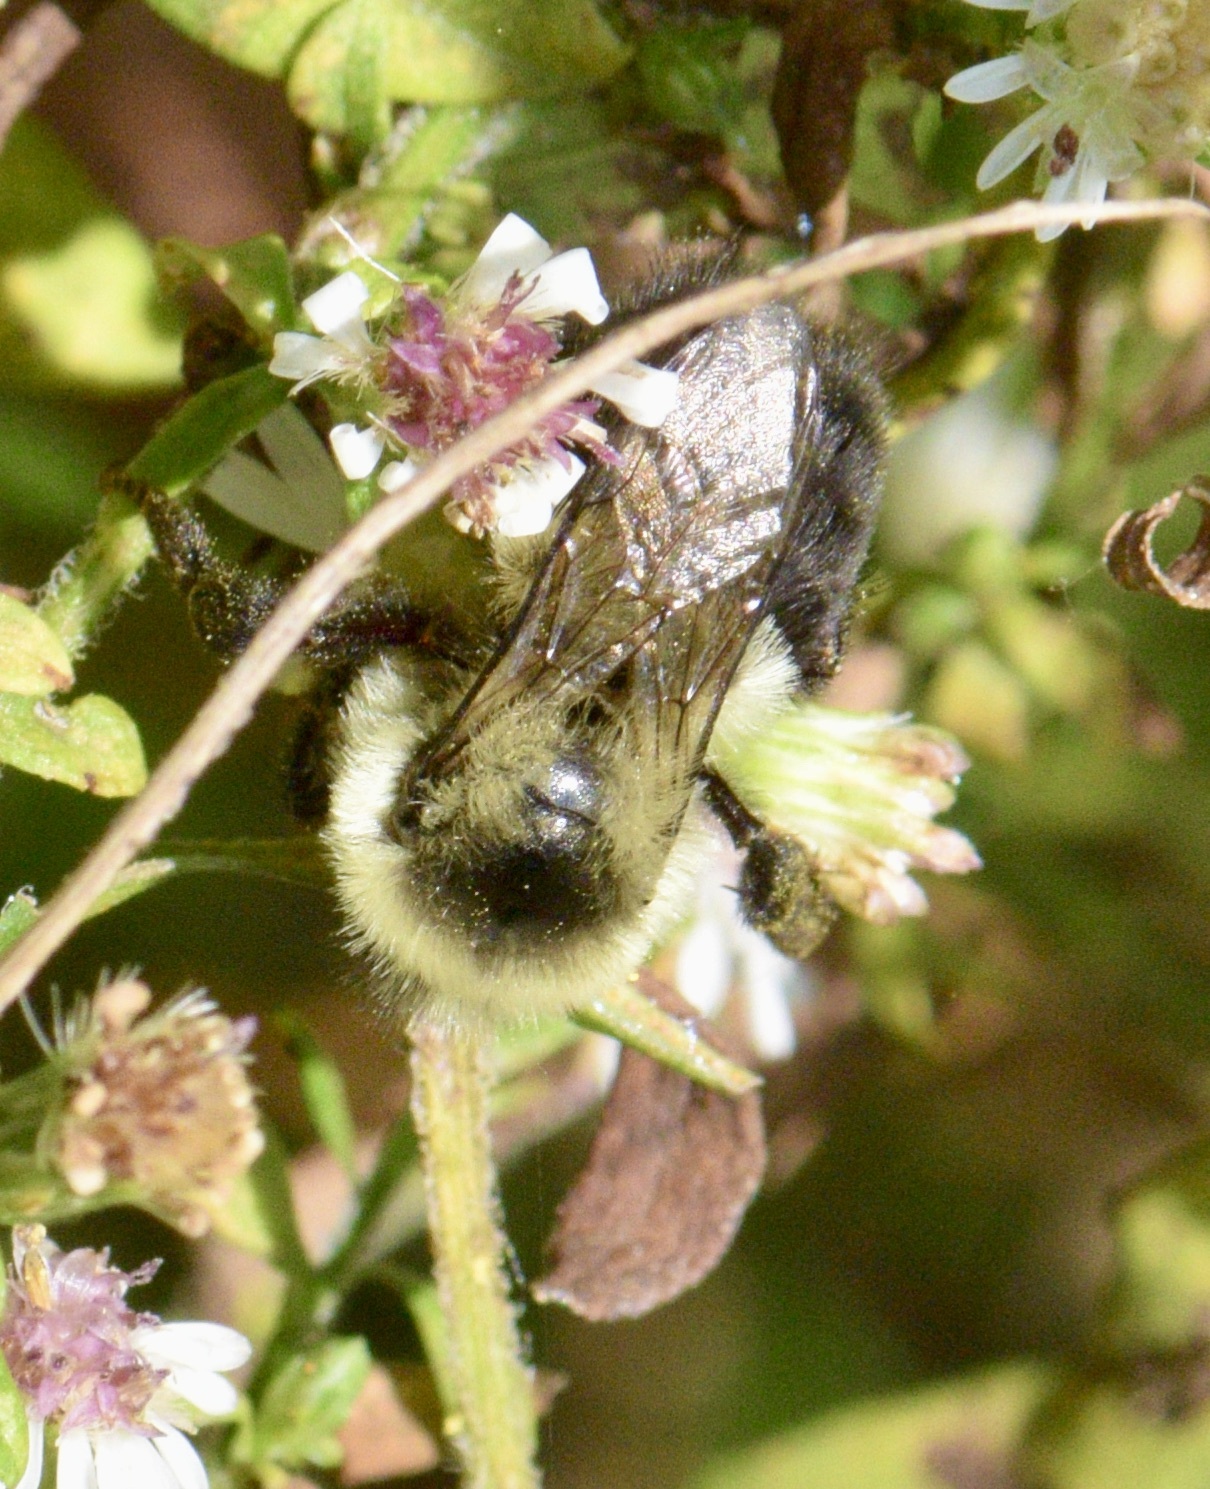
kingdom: Animalia
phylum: Arthropoda
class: Insecta
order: Hymenoptera
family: Apidae
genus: Bombus
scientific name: Bombus impatiens
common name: Common eastern bumble bee
